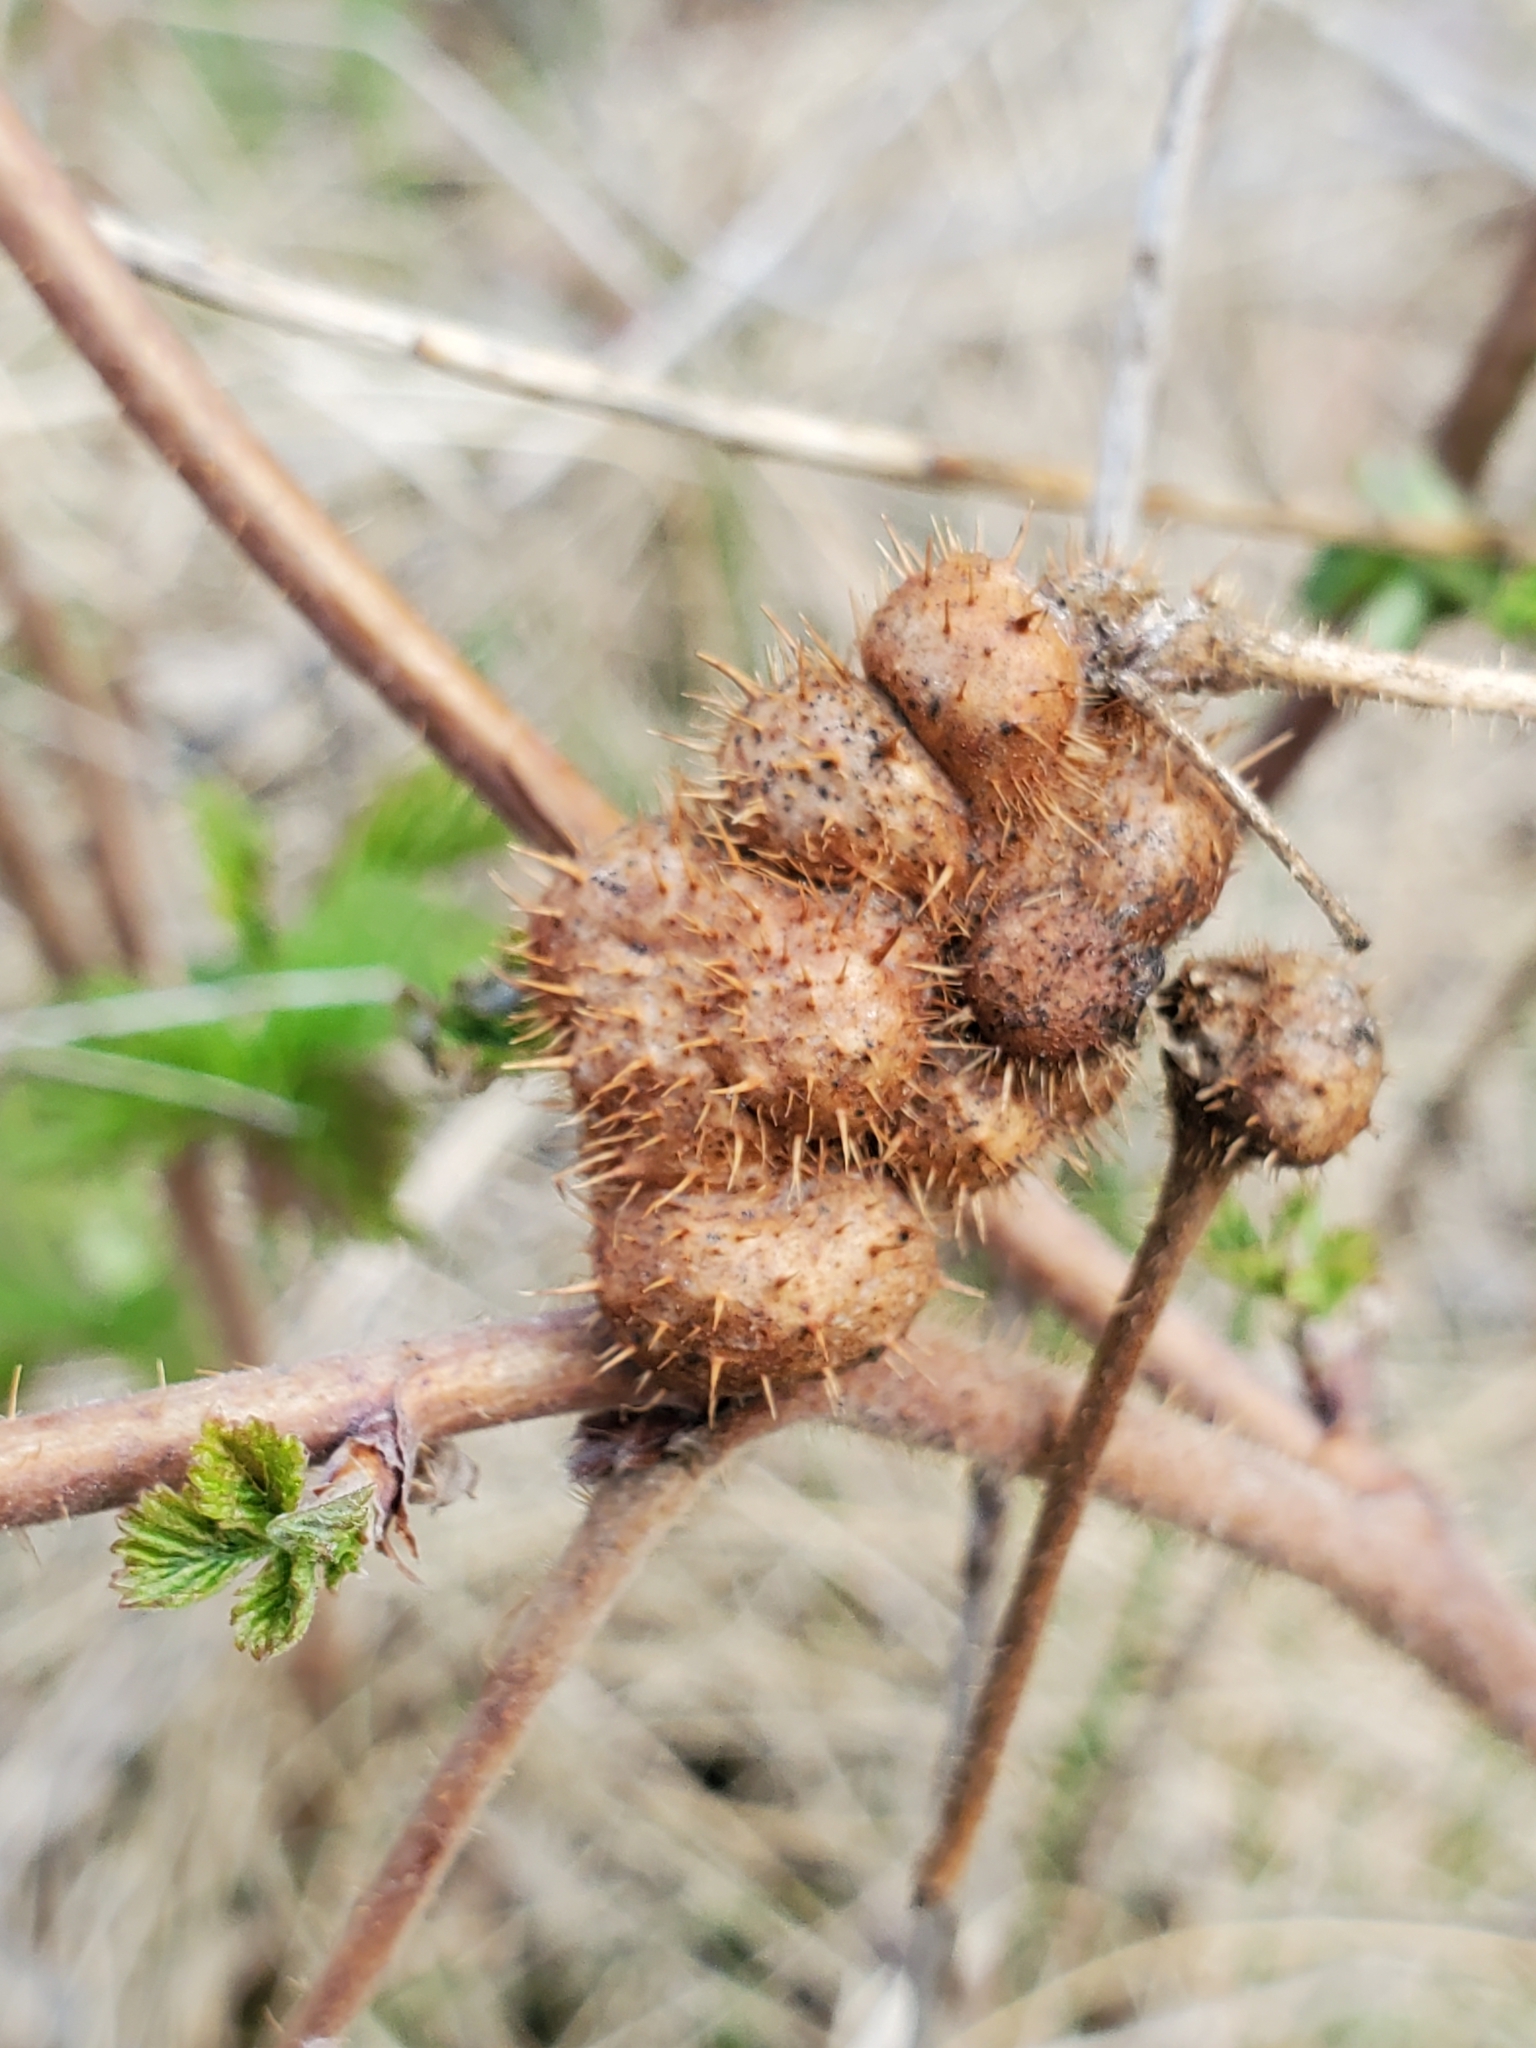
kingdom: Animalia
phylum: Arthropoda
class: Insecta
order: Hymenoptera
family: Cynipidae
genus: Diastrophus
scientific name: Diastrophus turgidus
